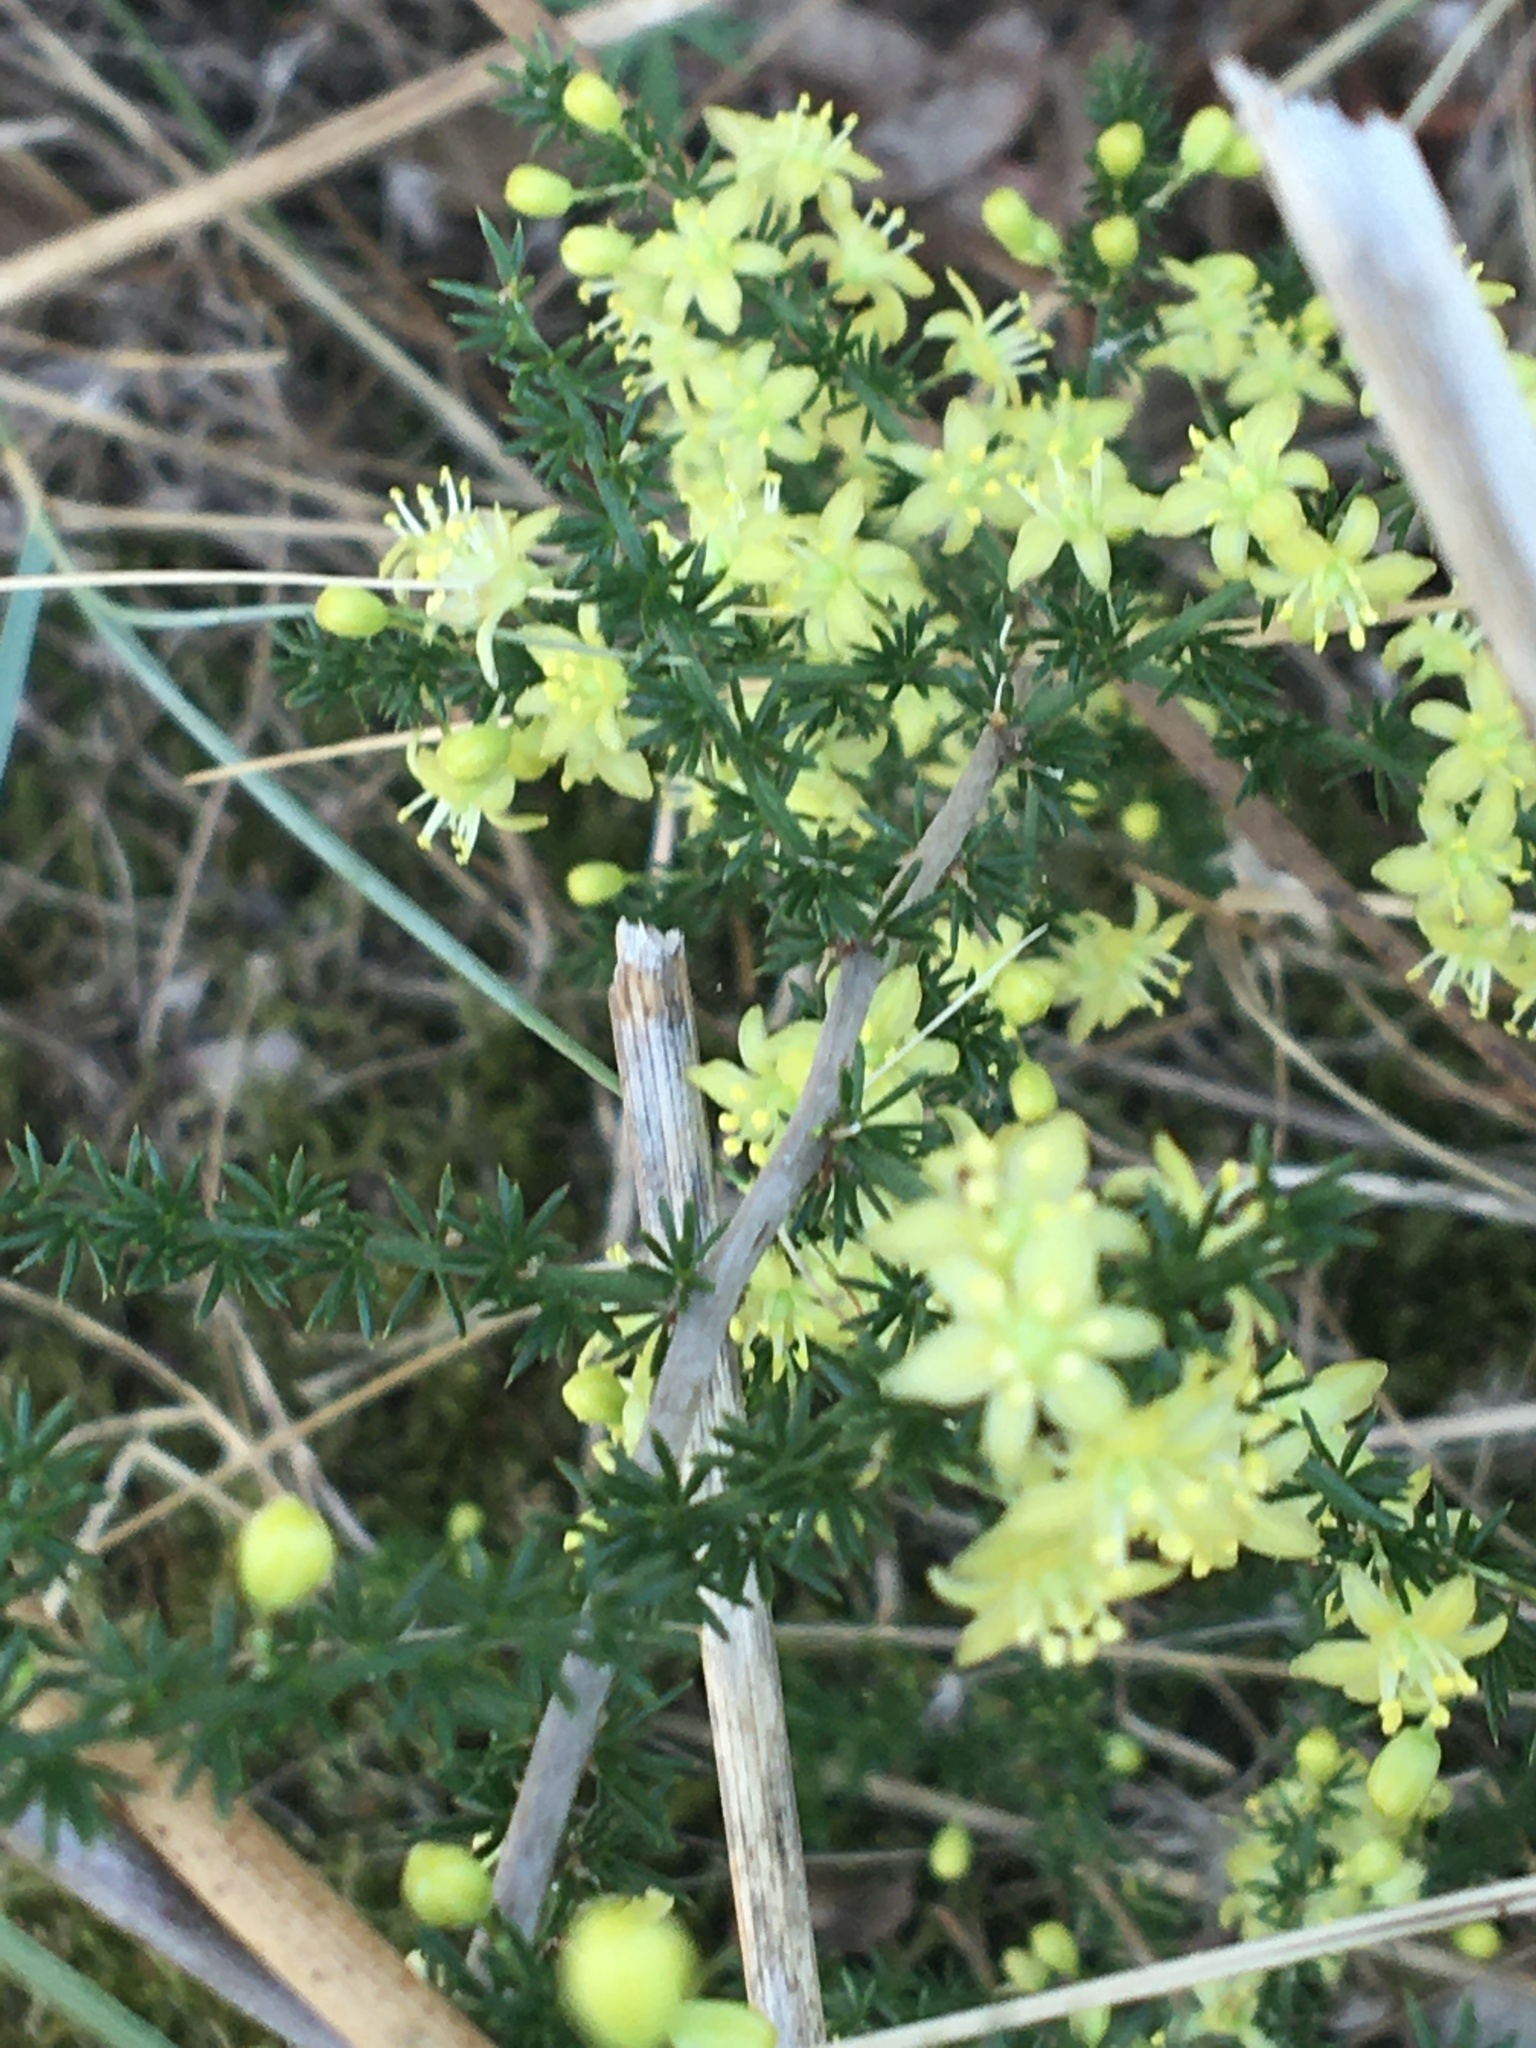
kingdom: Plantae
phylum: Tracheophyta
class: Liliopsida
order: Asparagales
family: Asparagaceae
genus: Asparagus
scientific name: Asparagus acutifolius
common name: Wild asparagus
